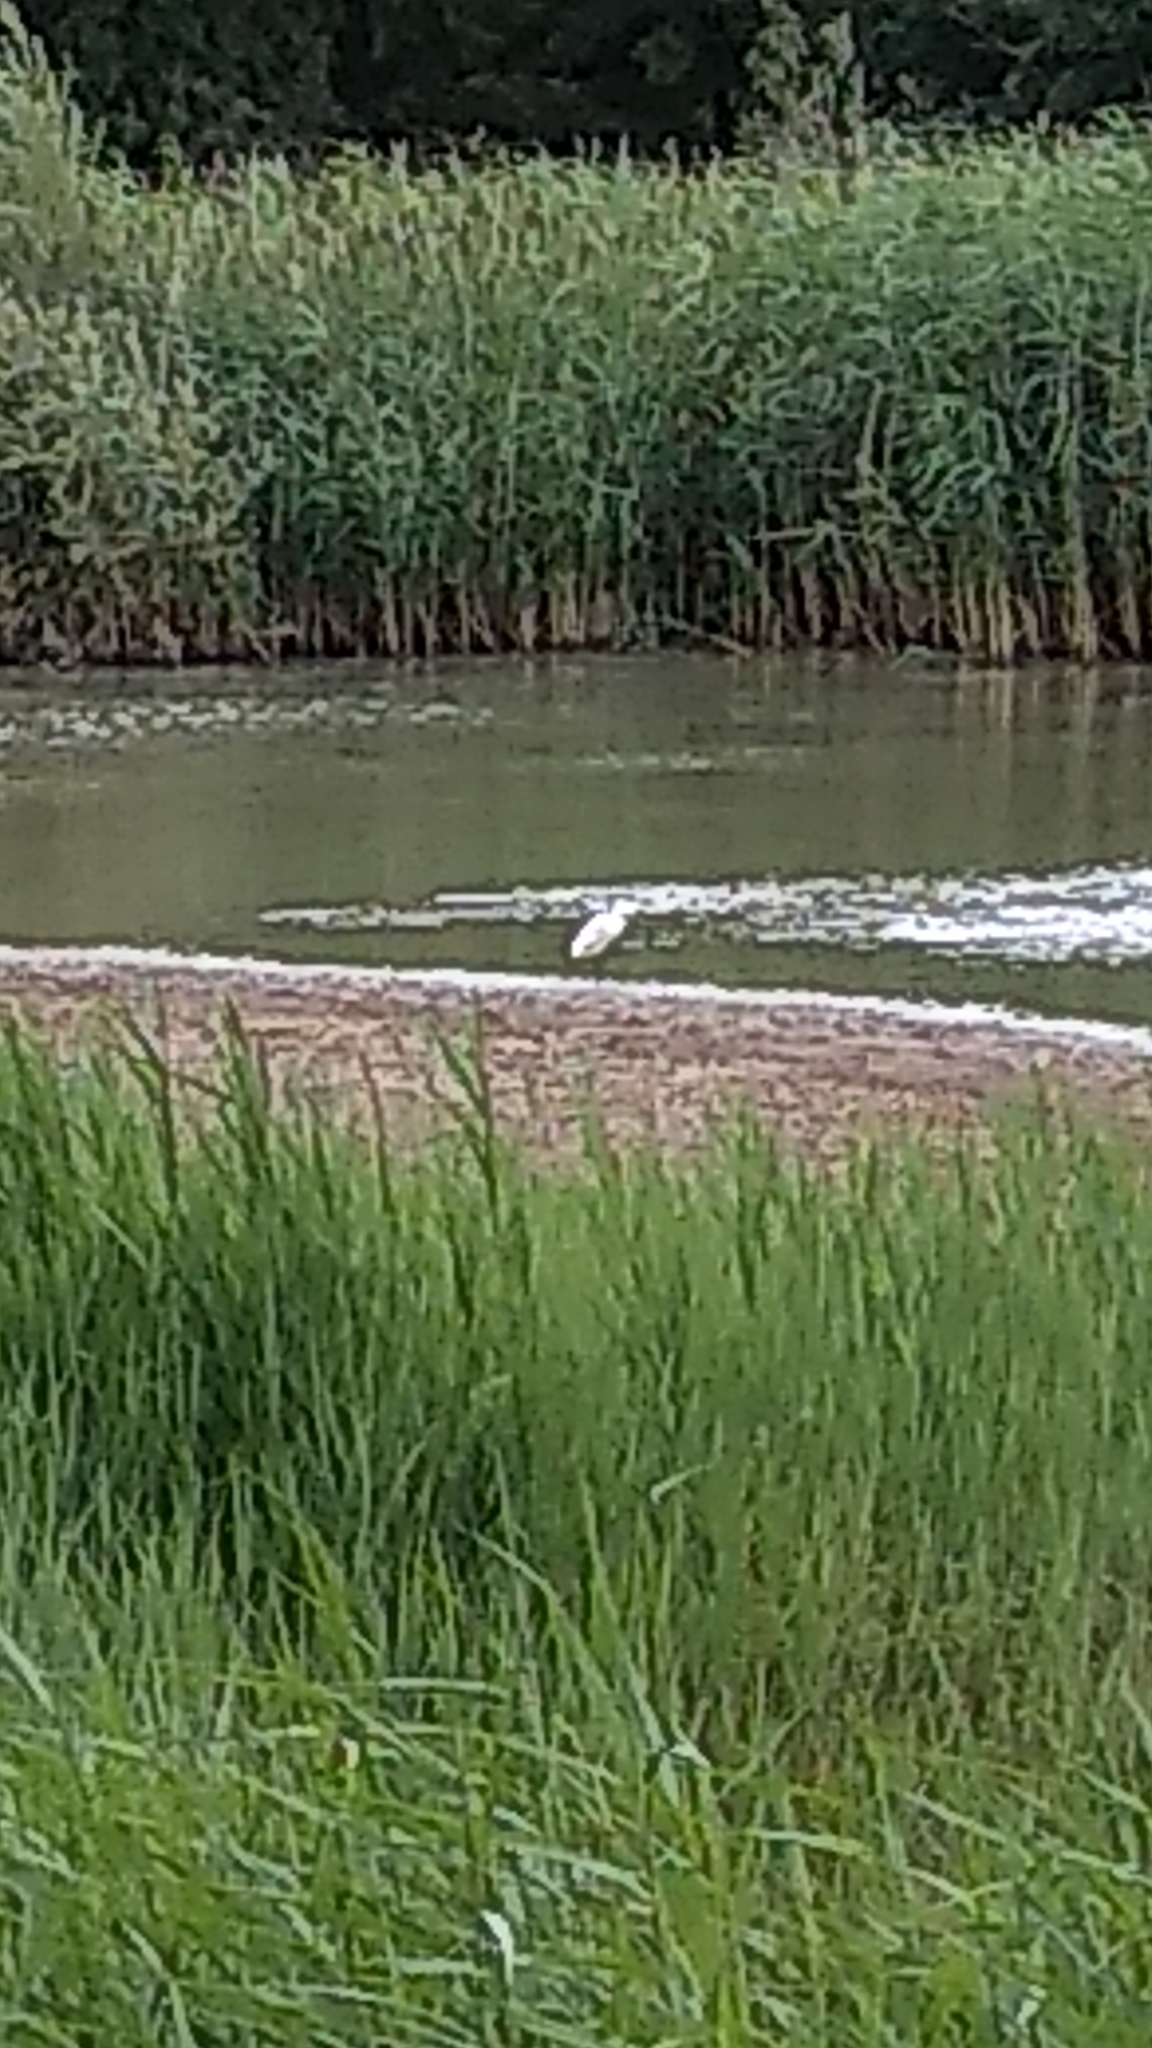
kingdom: Animalia
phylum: Chordata
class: Aves
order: Pelecaniformes
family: Ardeidae
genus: Egretta
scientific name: Egretta garzetta
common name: Little egret
